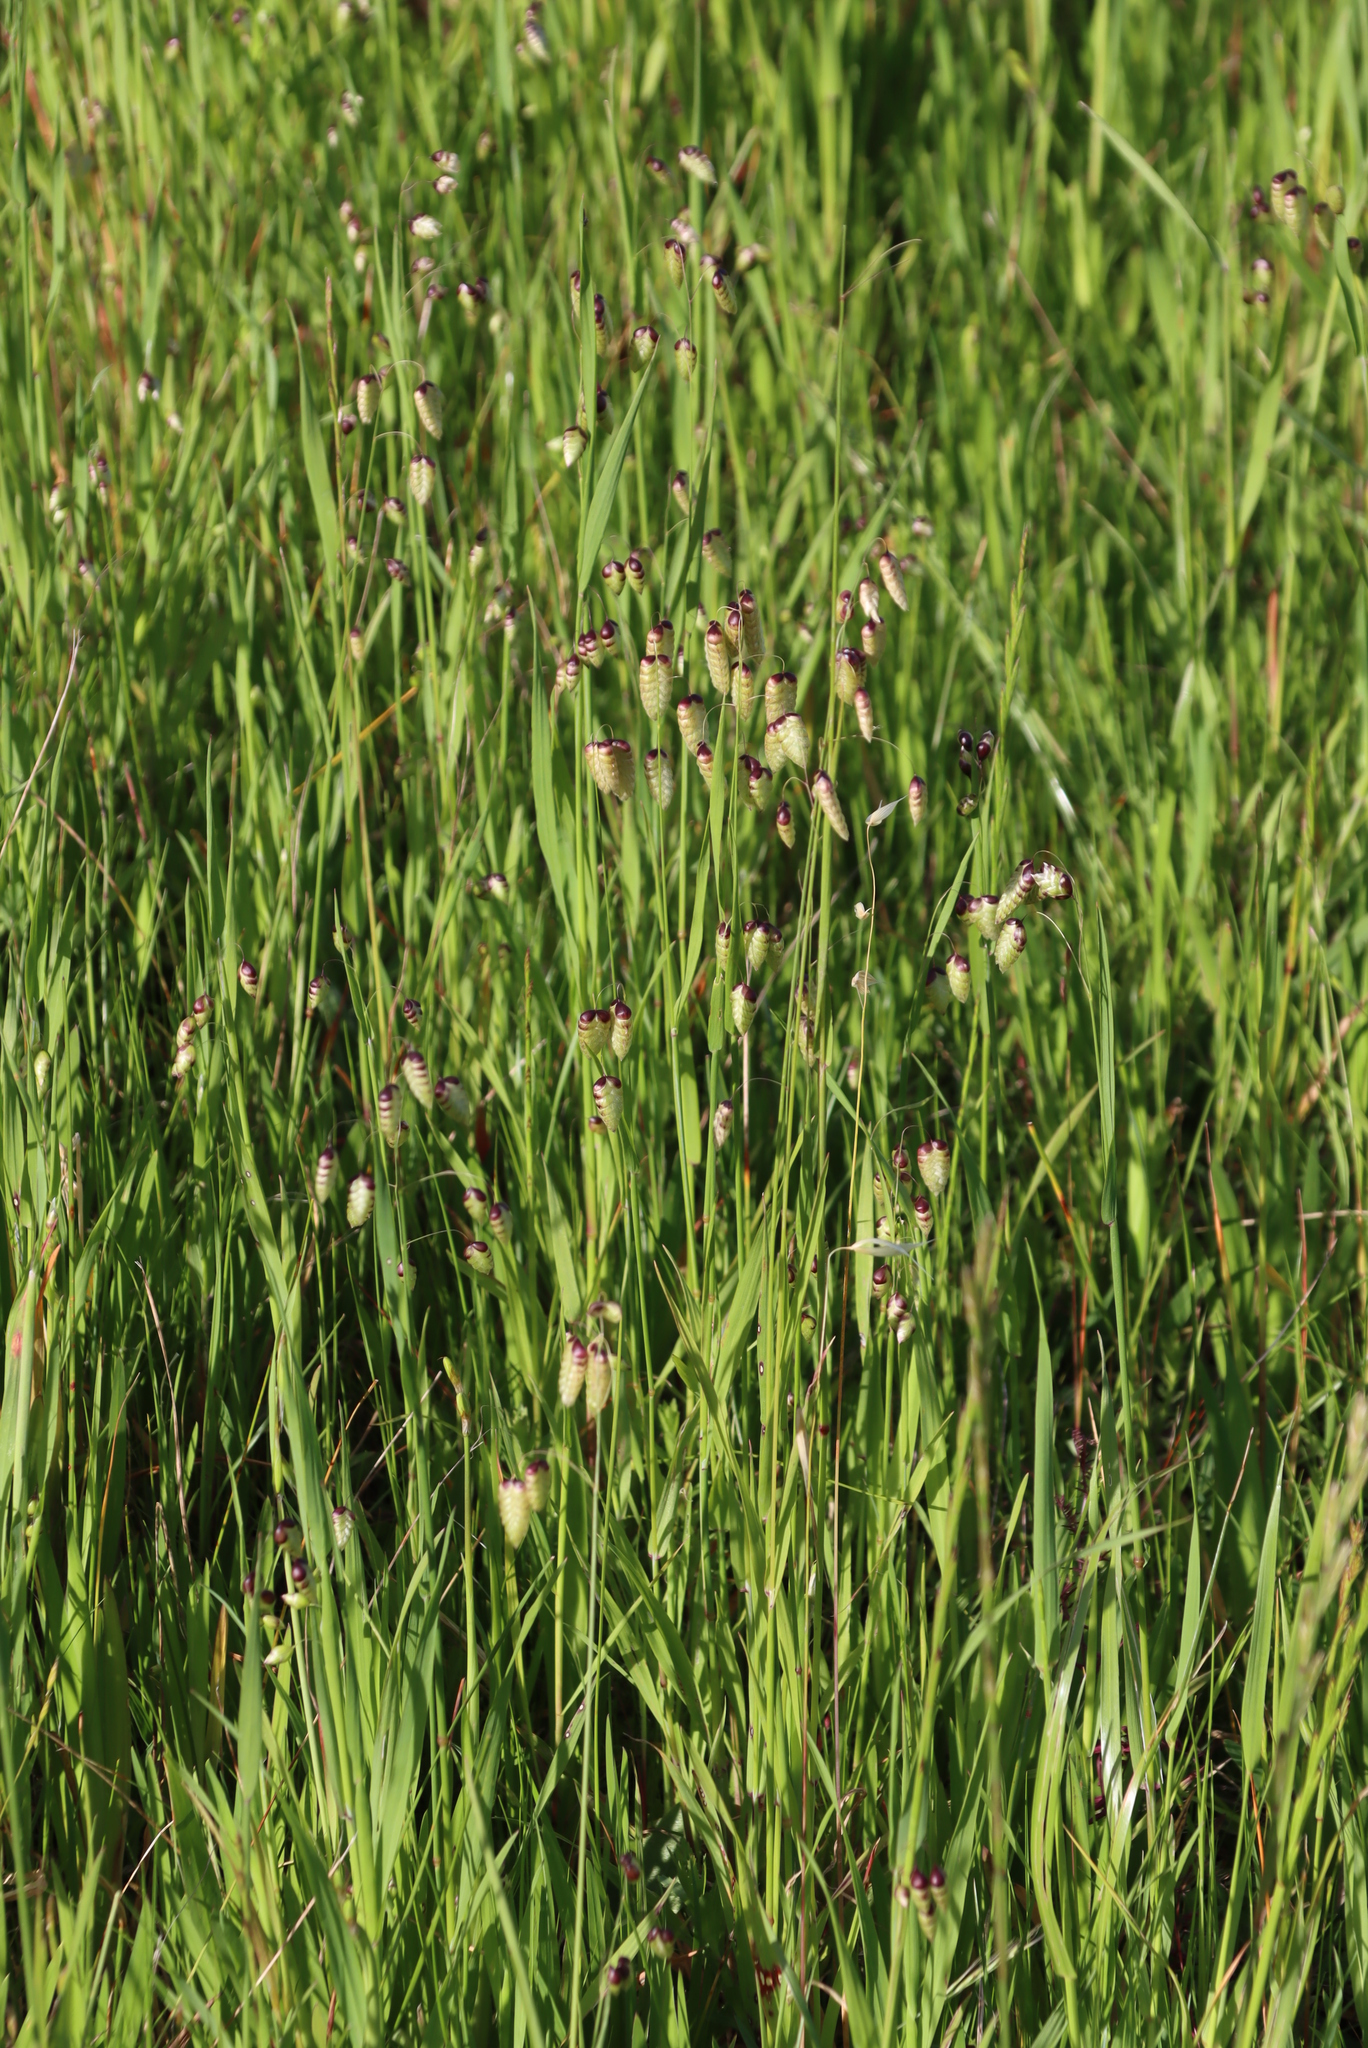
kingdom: Plantae
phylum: Tracheophyta
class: Liliopsida
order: Poales
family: Poaceae
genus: Briza
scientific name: Briza maxima
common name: Big quakinggrass
